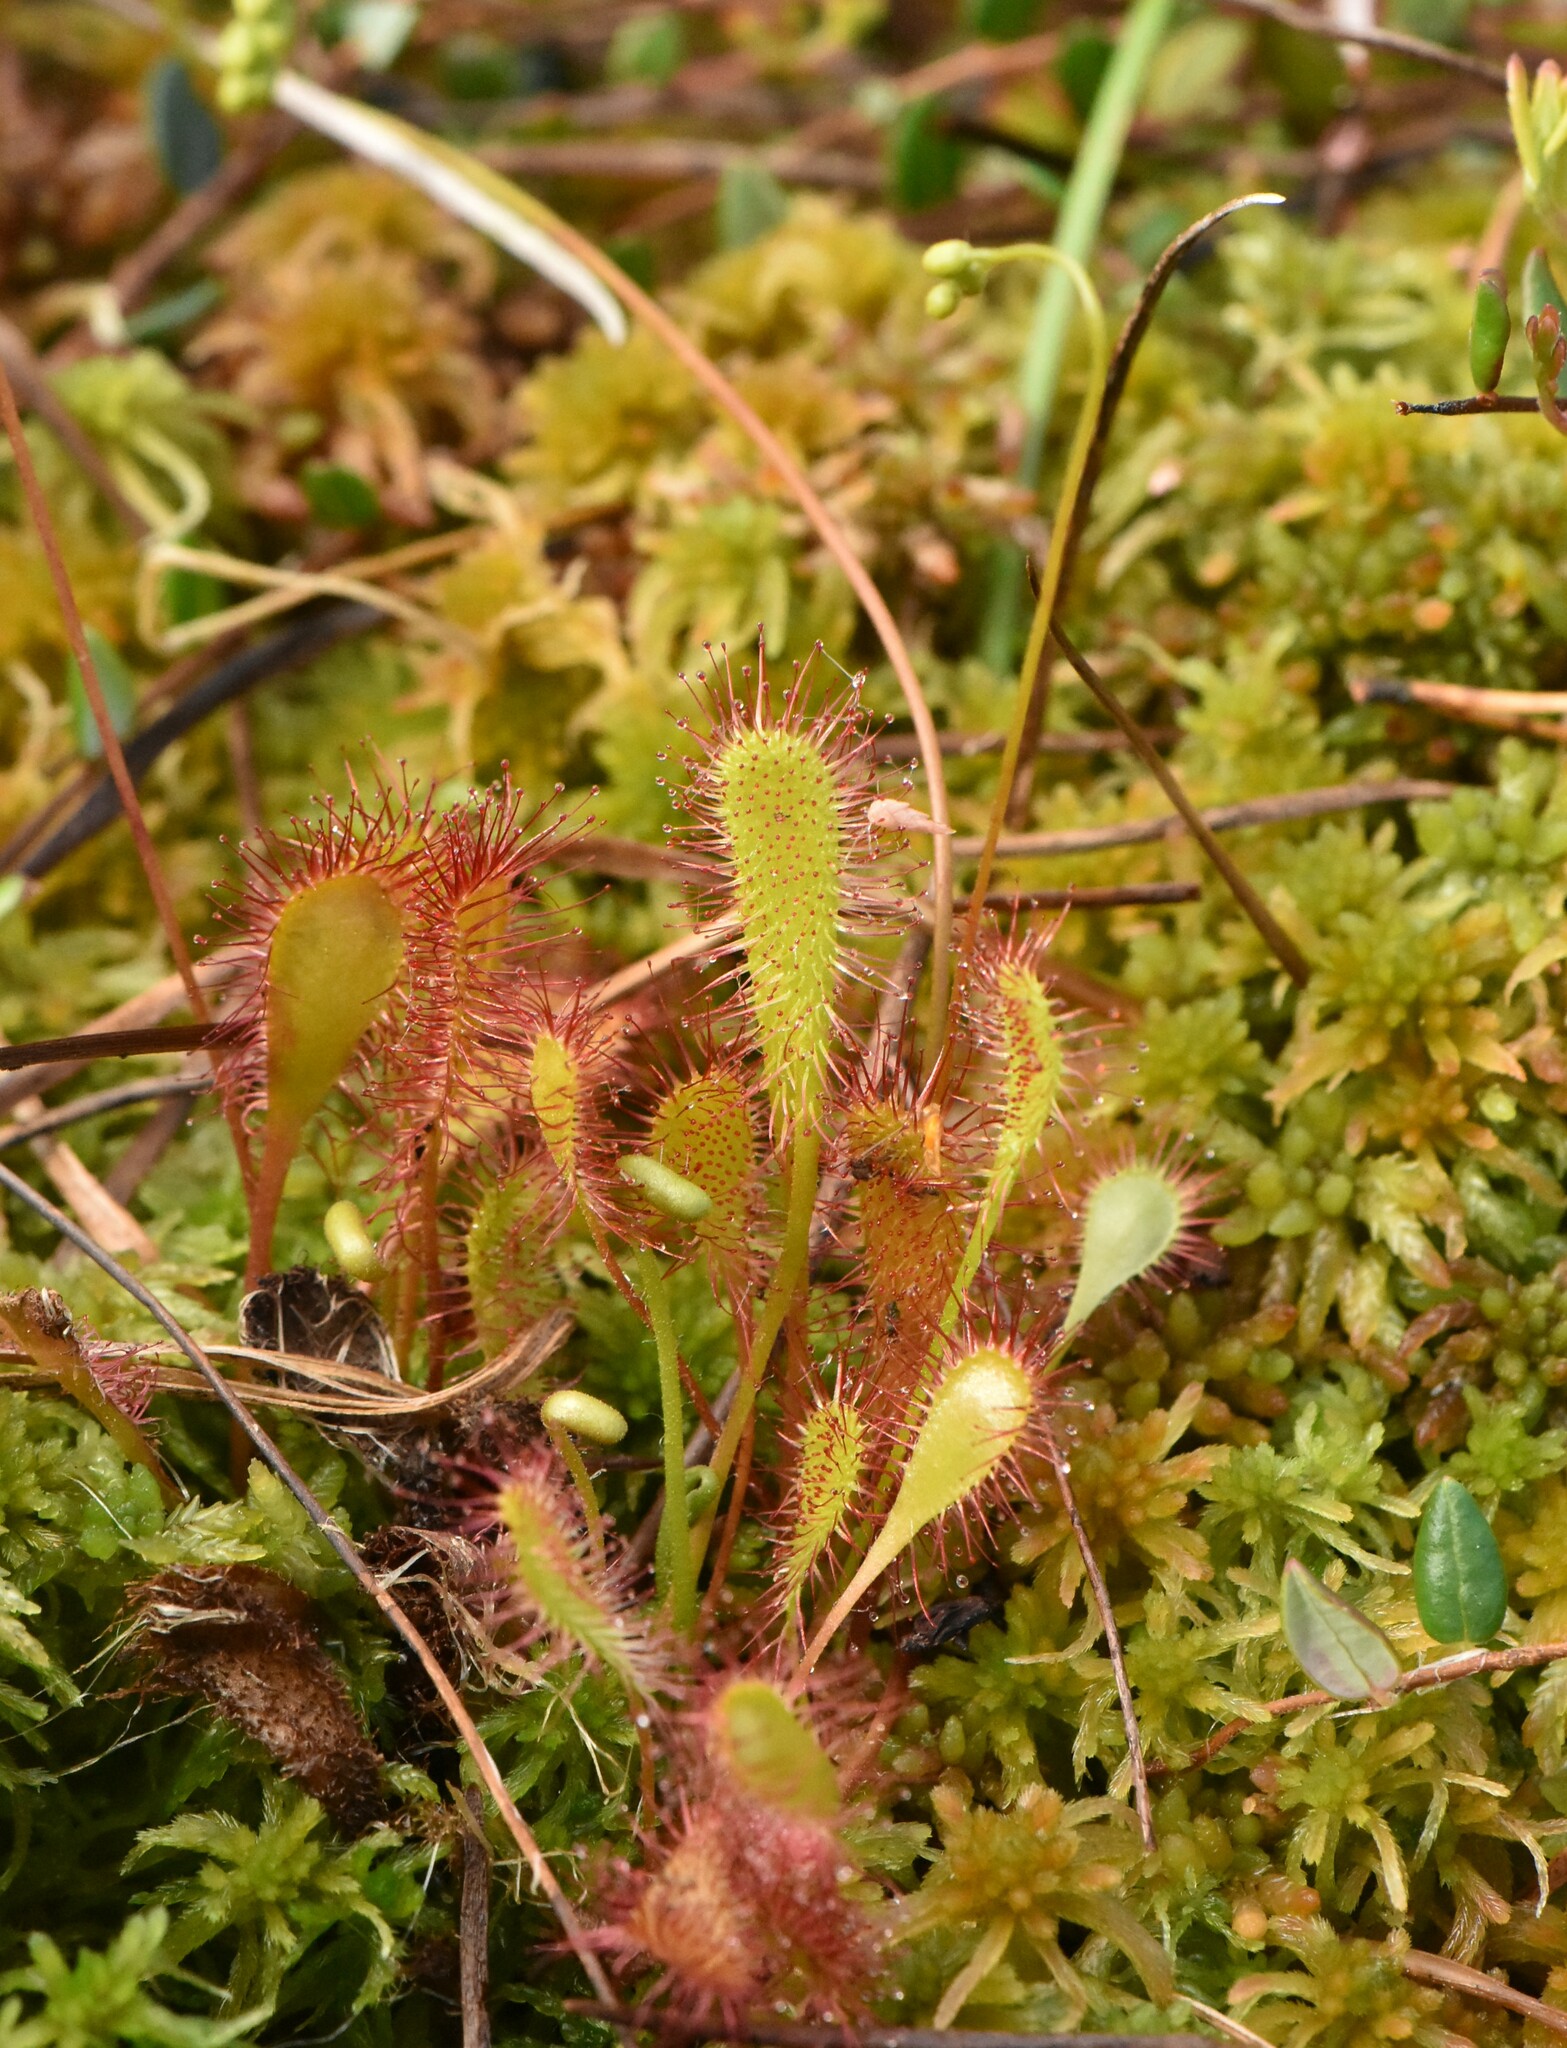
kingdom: Plantae
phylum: Tracheophyta
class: Magnoliopsida
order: Caryophyllales
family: Droseraceae
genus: Drosera
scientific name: Drosera anglica
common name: Great sundew
